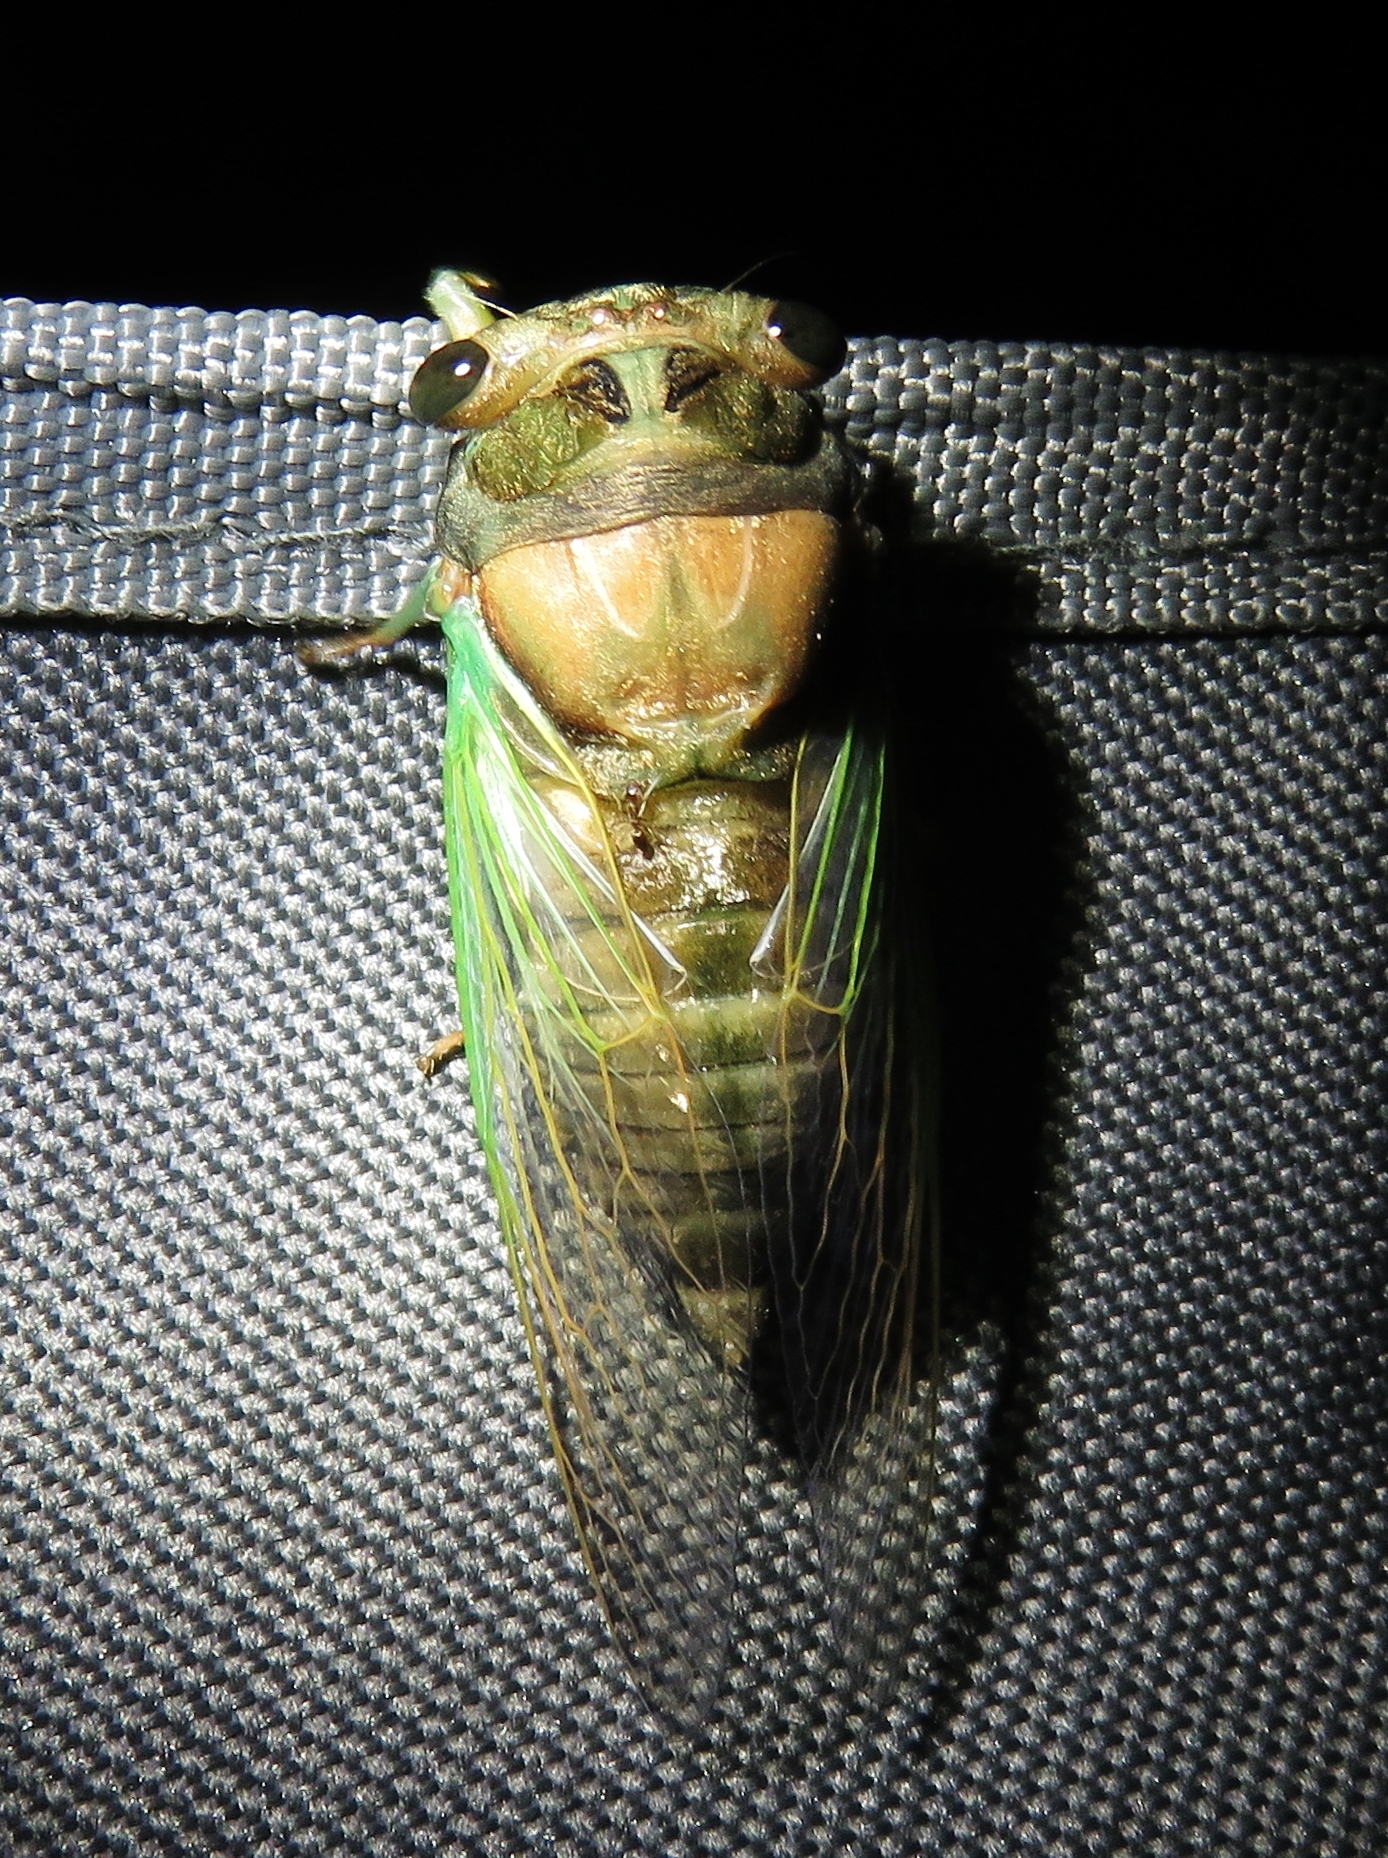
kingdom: Animalia
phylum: Arthropoda
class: Insecta
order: Hemiptera
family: Cicadidae
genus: Neotibicen
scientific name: Neotibicen tibicen
